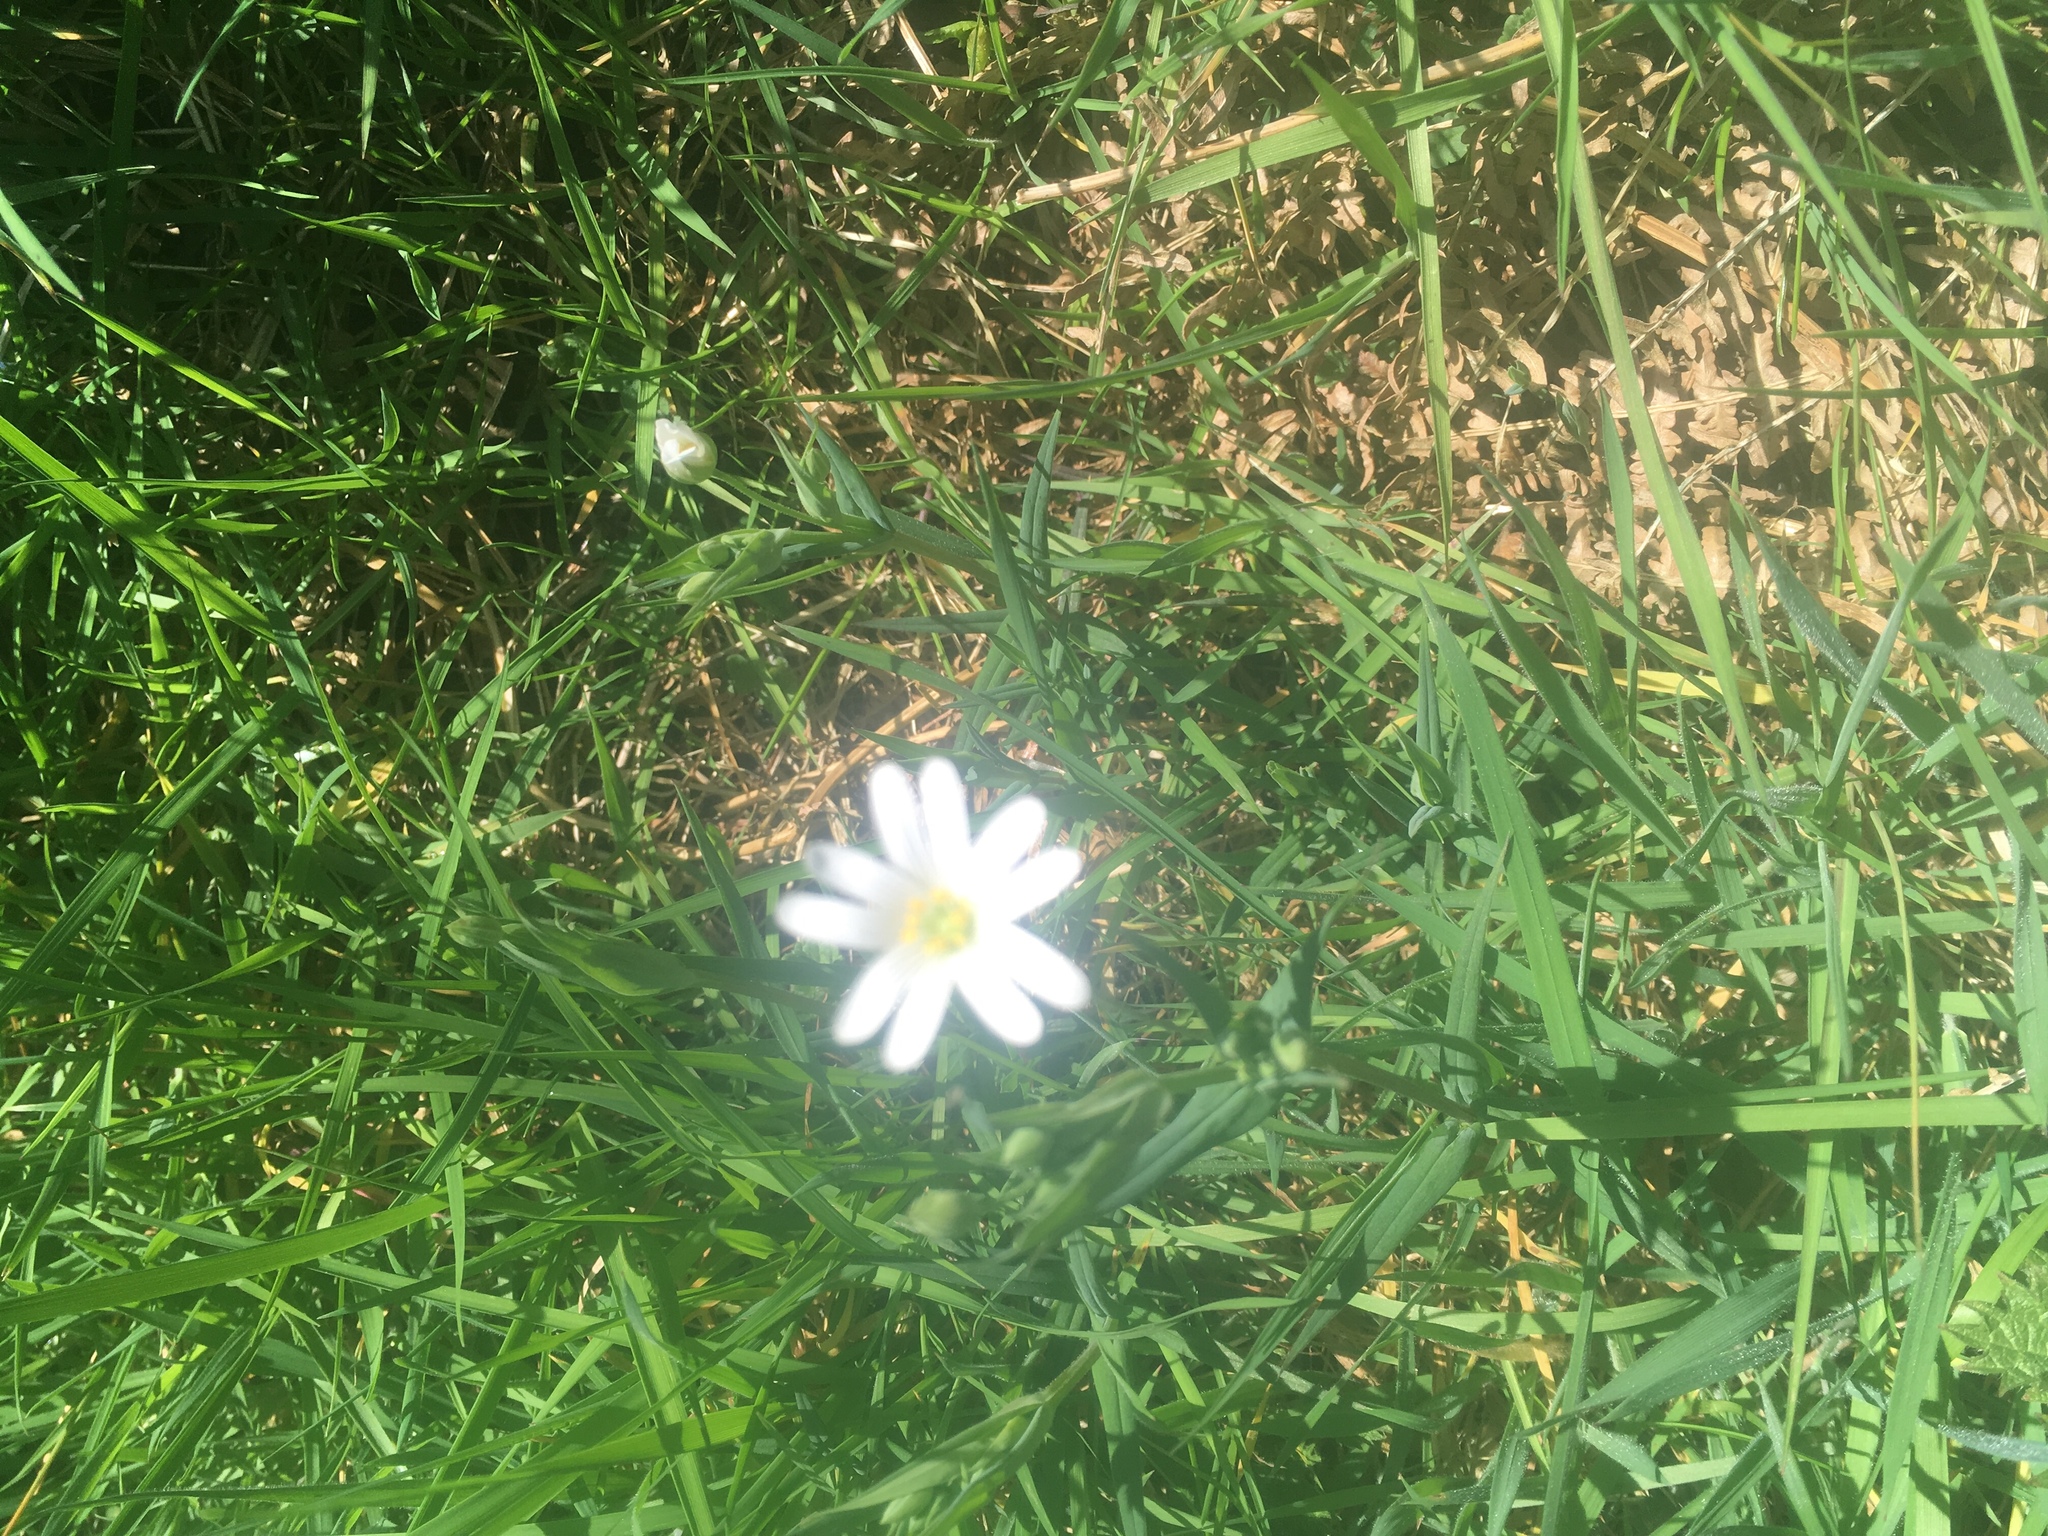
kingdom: Plantae
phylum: Tracheophyta
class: Magnoliopsida
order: Caryophyllales
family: Caryophyllaceae
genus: Rabelera
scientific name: Rabelera holostea
